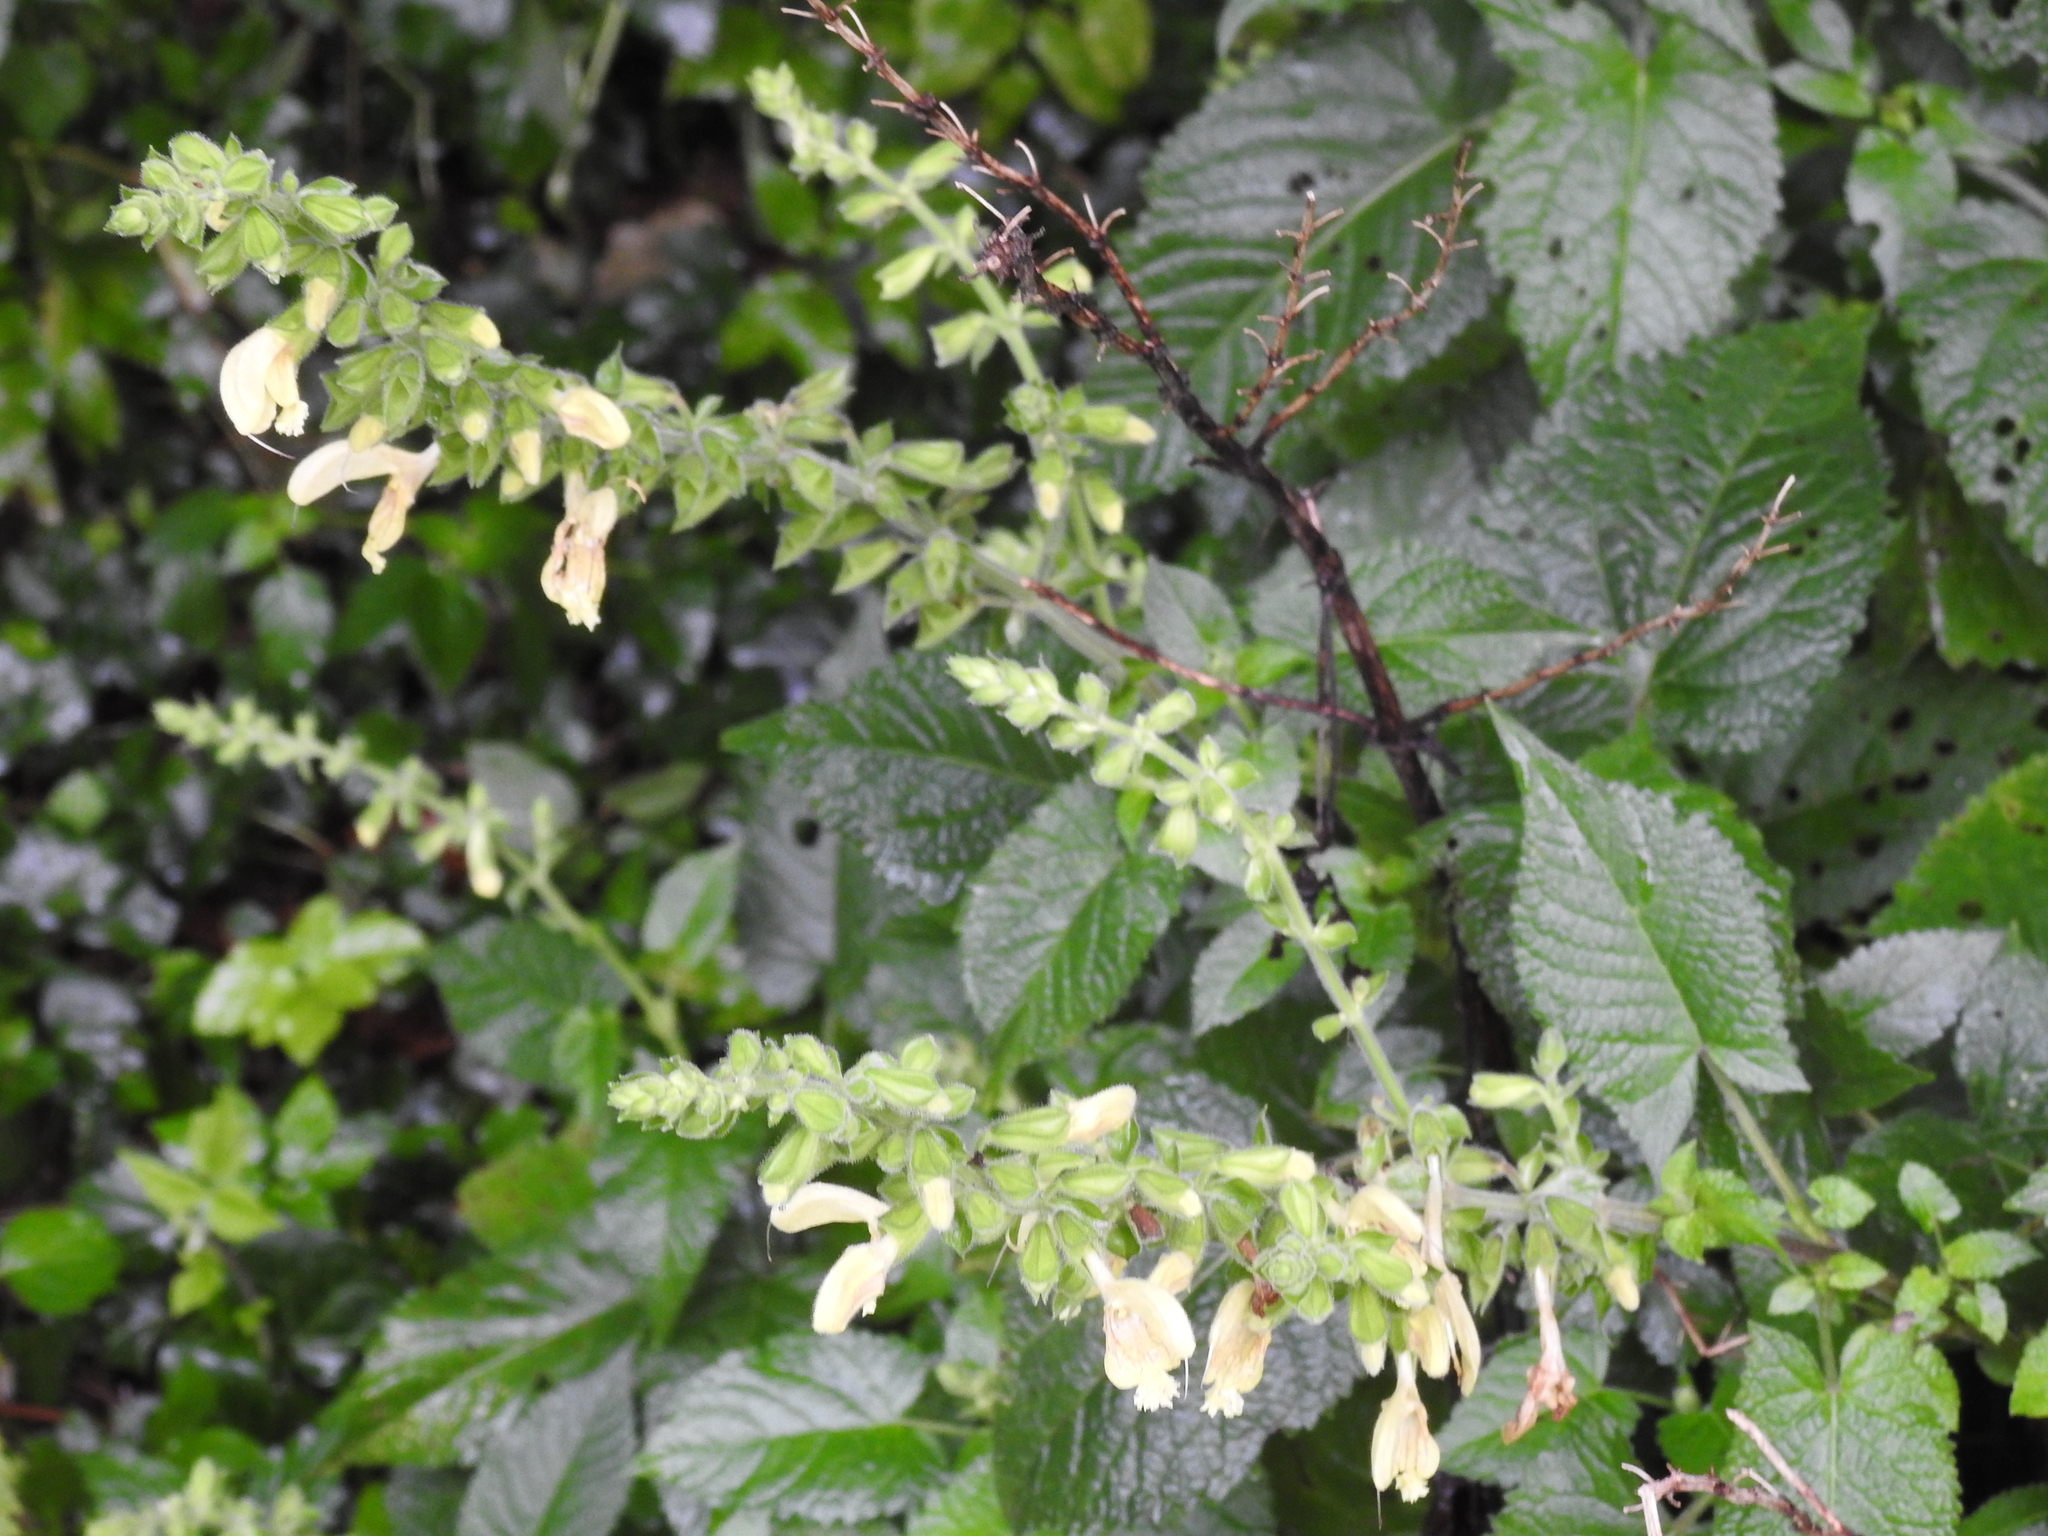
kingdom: Plantae
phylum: Tracheophyta
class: Magnoliopsida
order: Lamiales
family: Lamiaceae
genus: Salvia
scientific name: Salvia glutinosa
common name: Sticky clary
